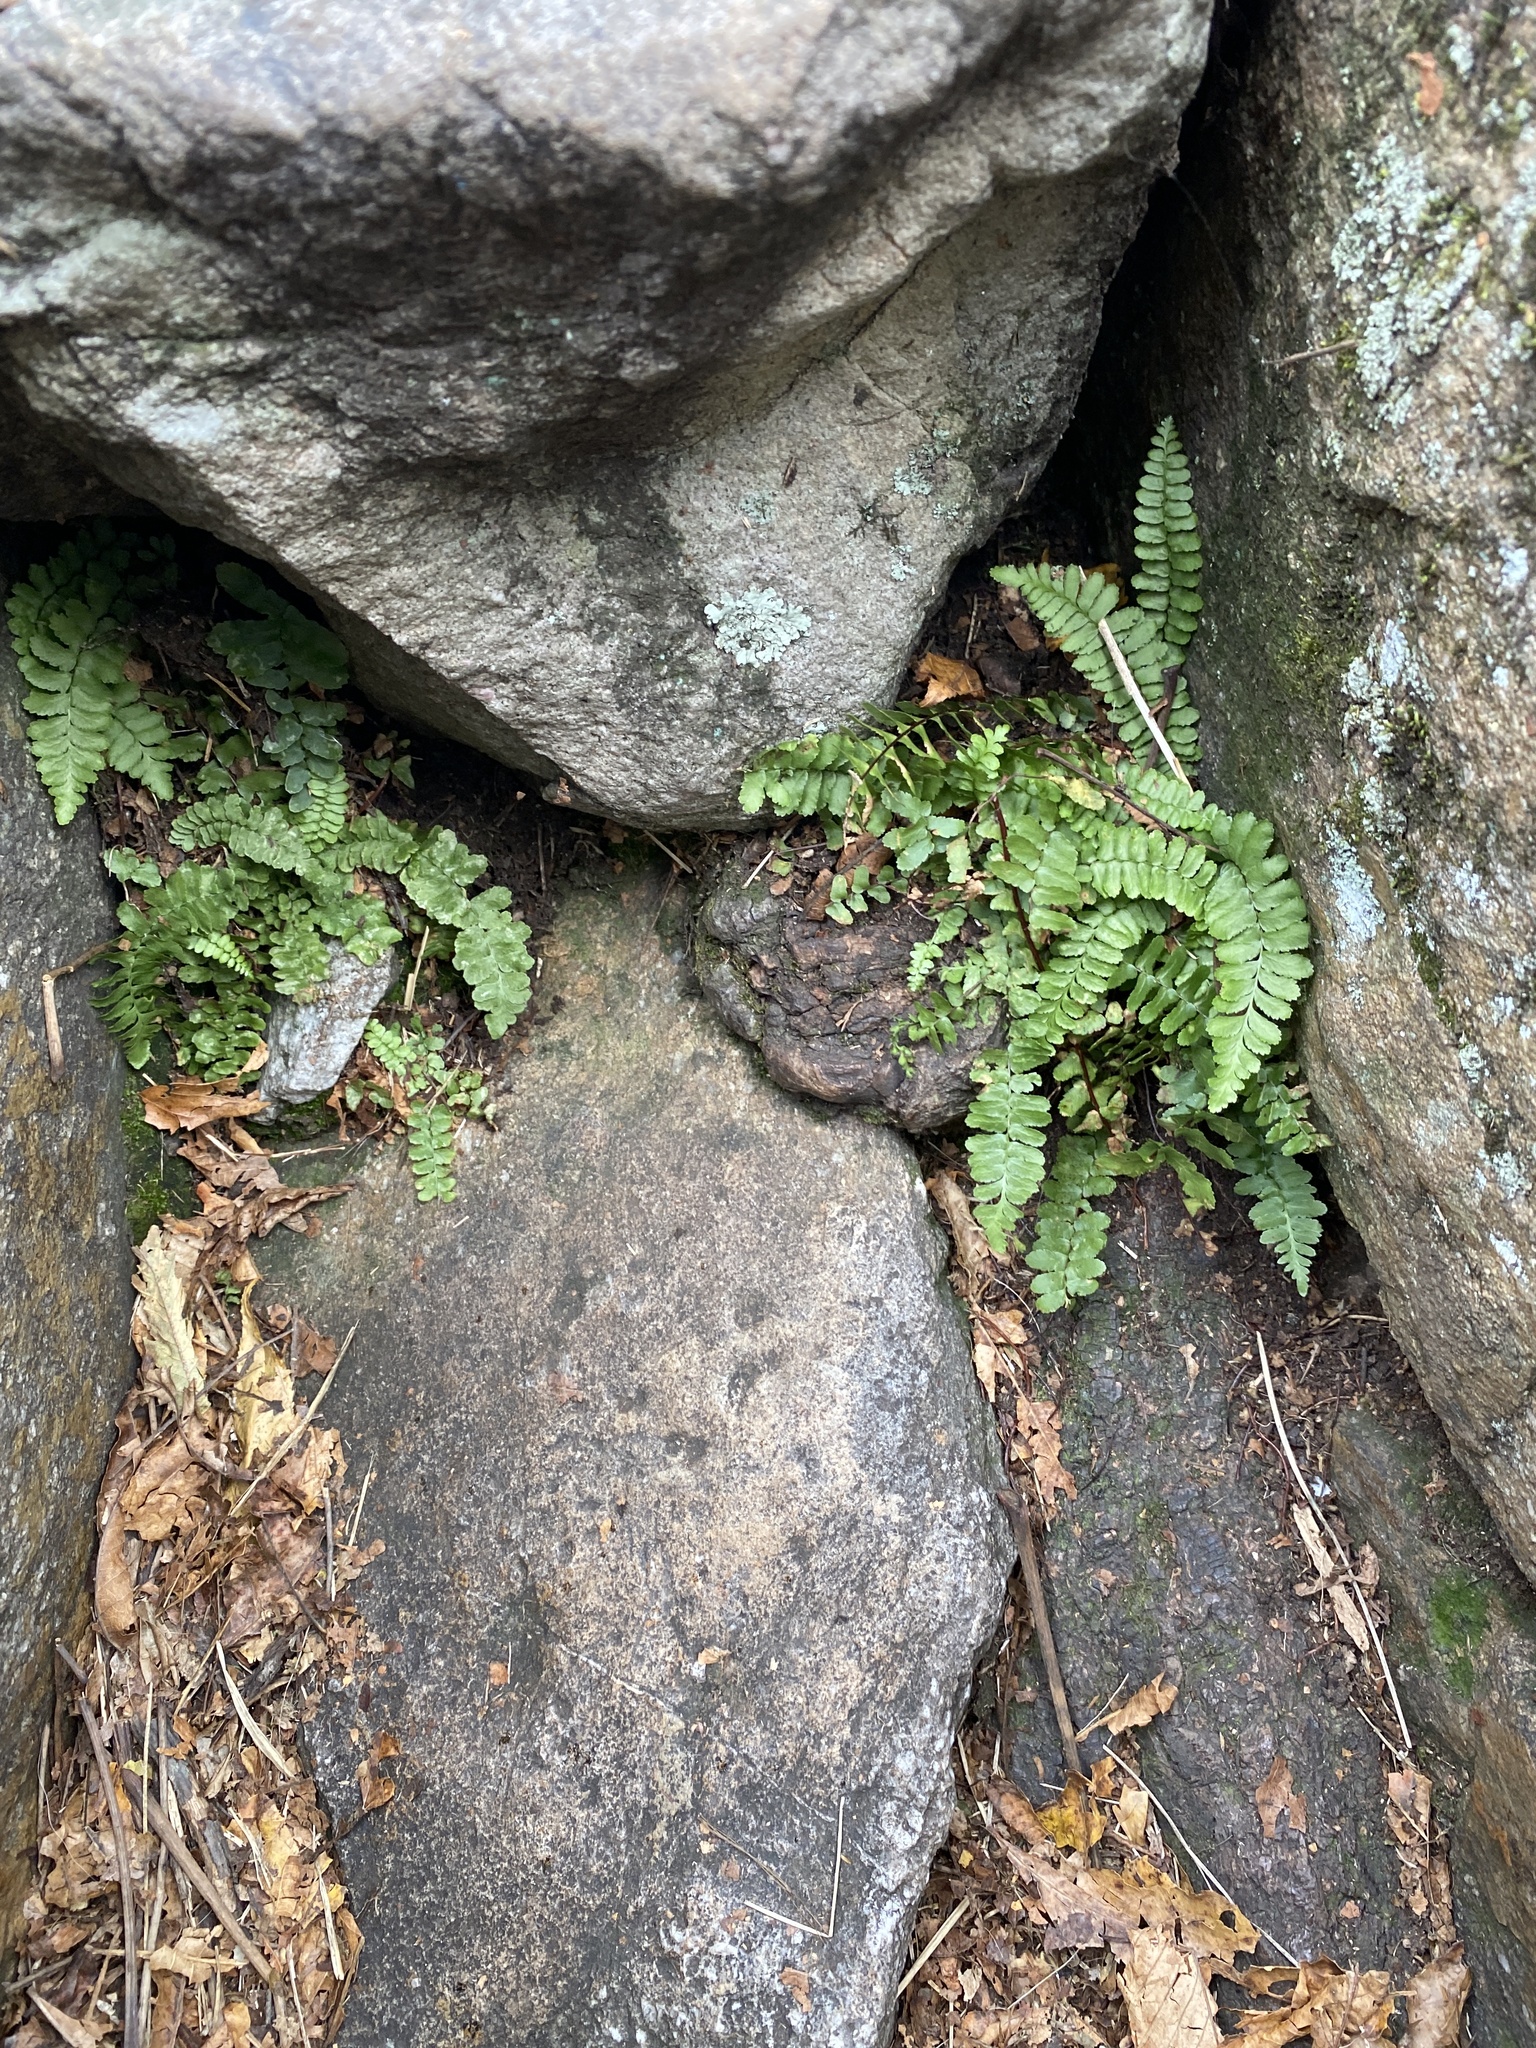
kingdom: Plantae
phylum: Tracheophyta
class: Polypodiopsida
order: Polypodiales
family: Aspleniaceae
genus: Asplenium
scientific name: Asplenium platyneuron
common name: Ebony spleenwort
